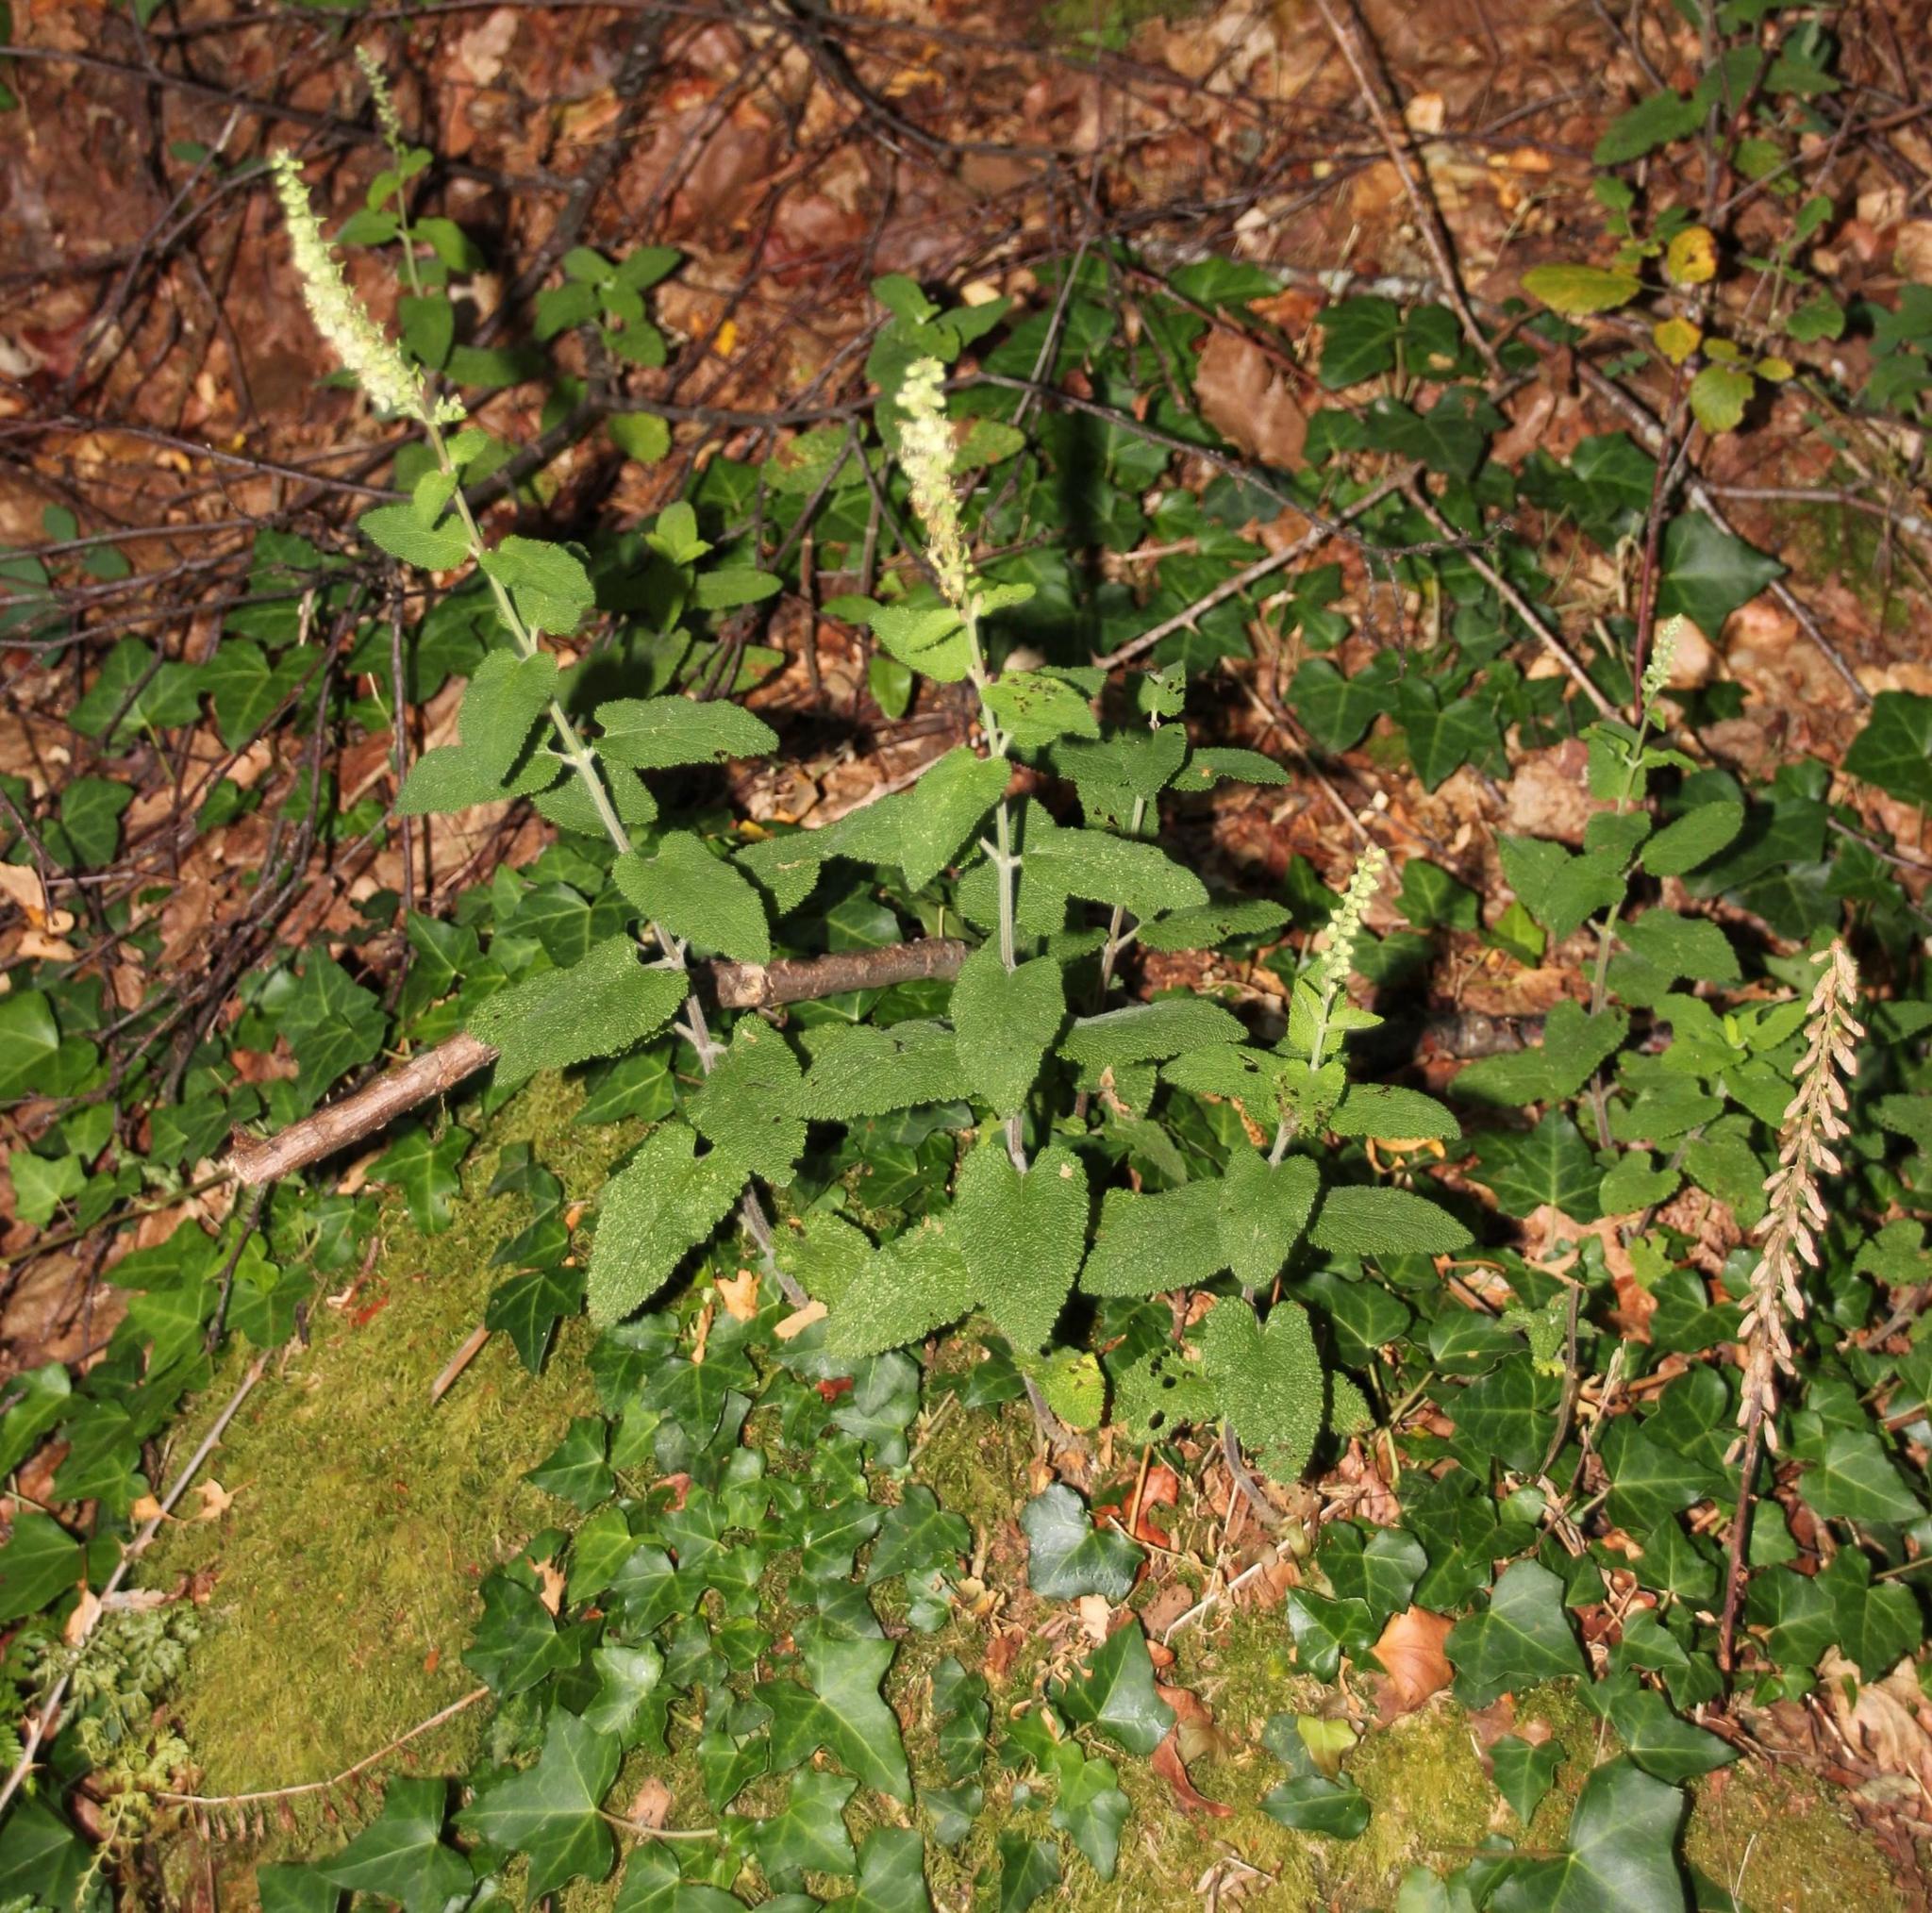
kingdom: Plantae
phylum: Tracheophyta
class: Magnoliopsida
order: Lamiales
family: Lamiaceae
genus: Teucrium
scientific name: Teucrium scorodonia
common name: Woodland germander
